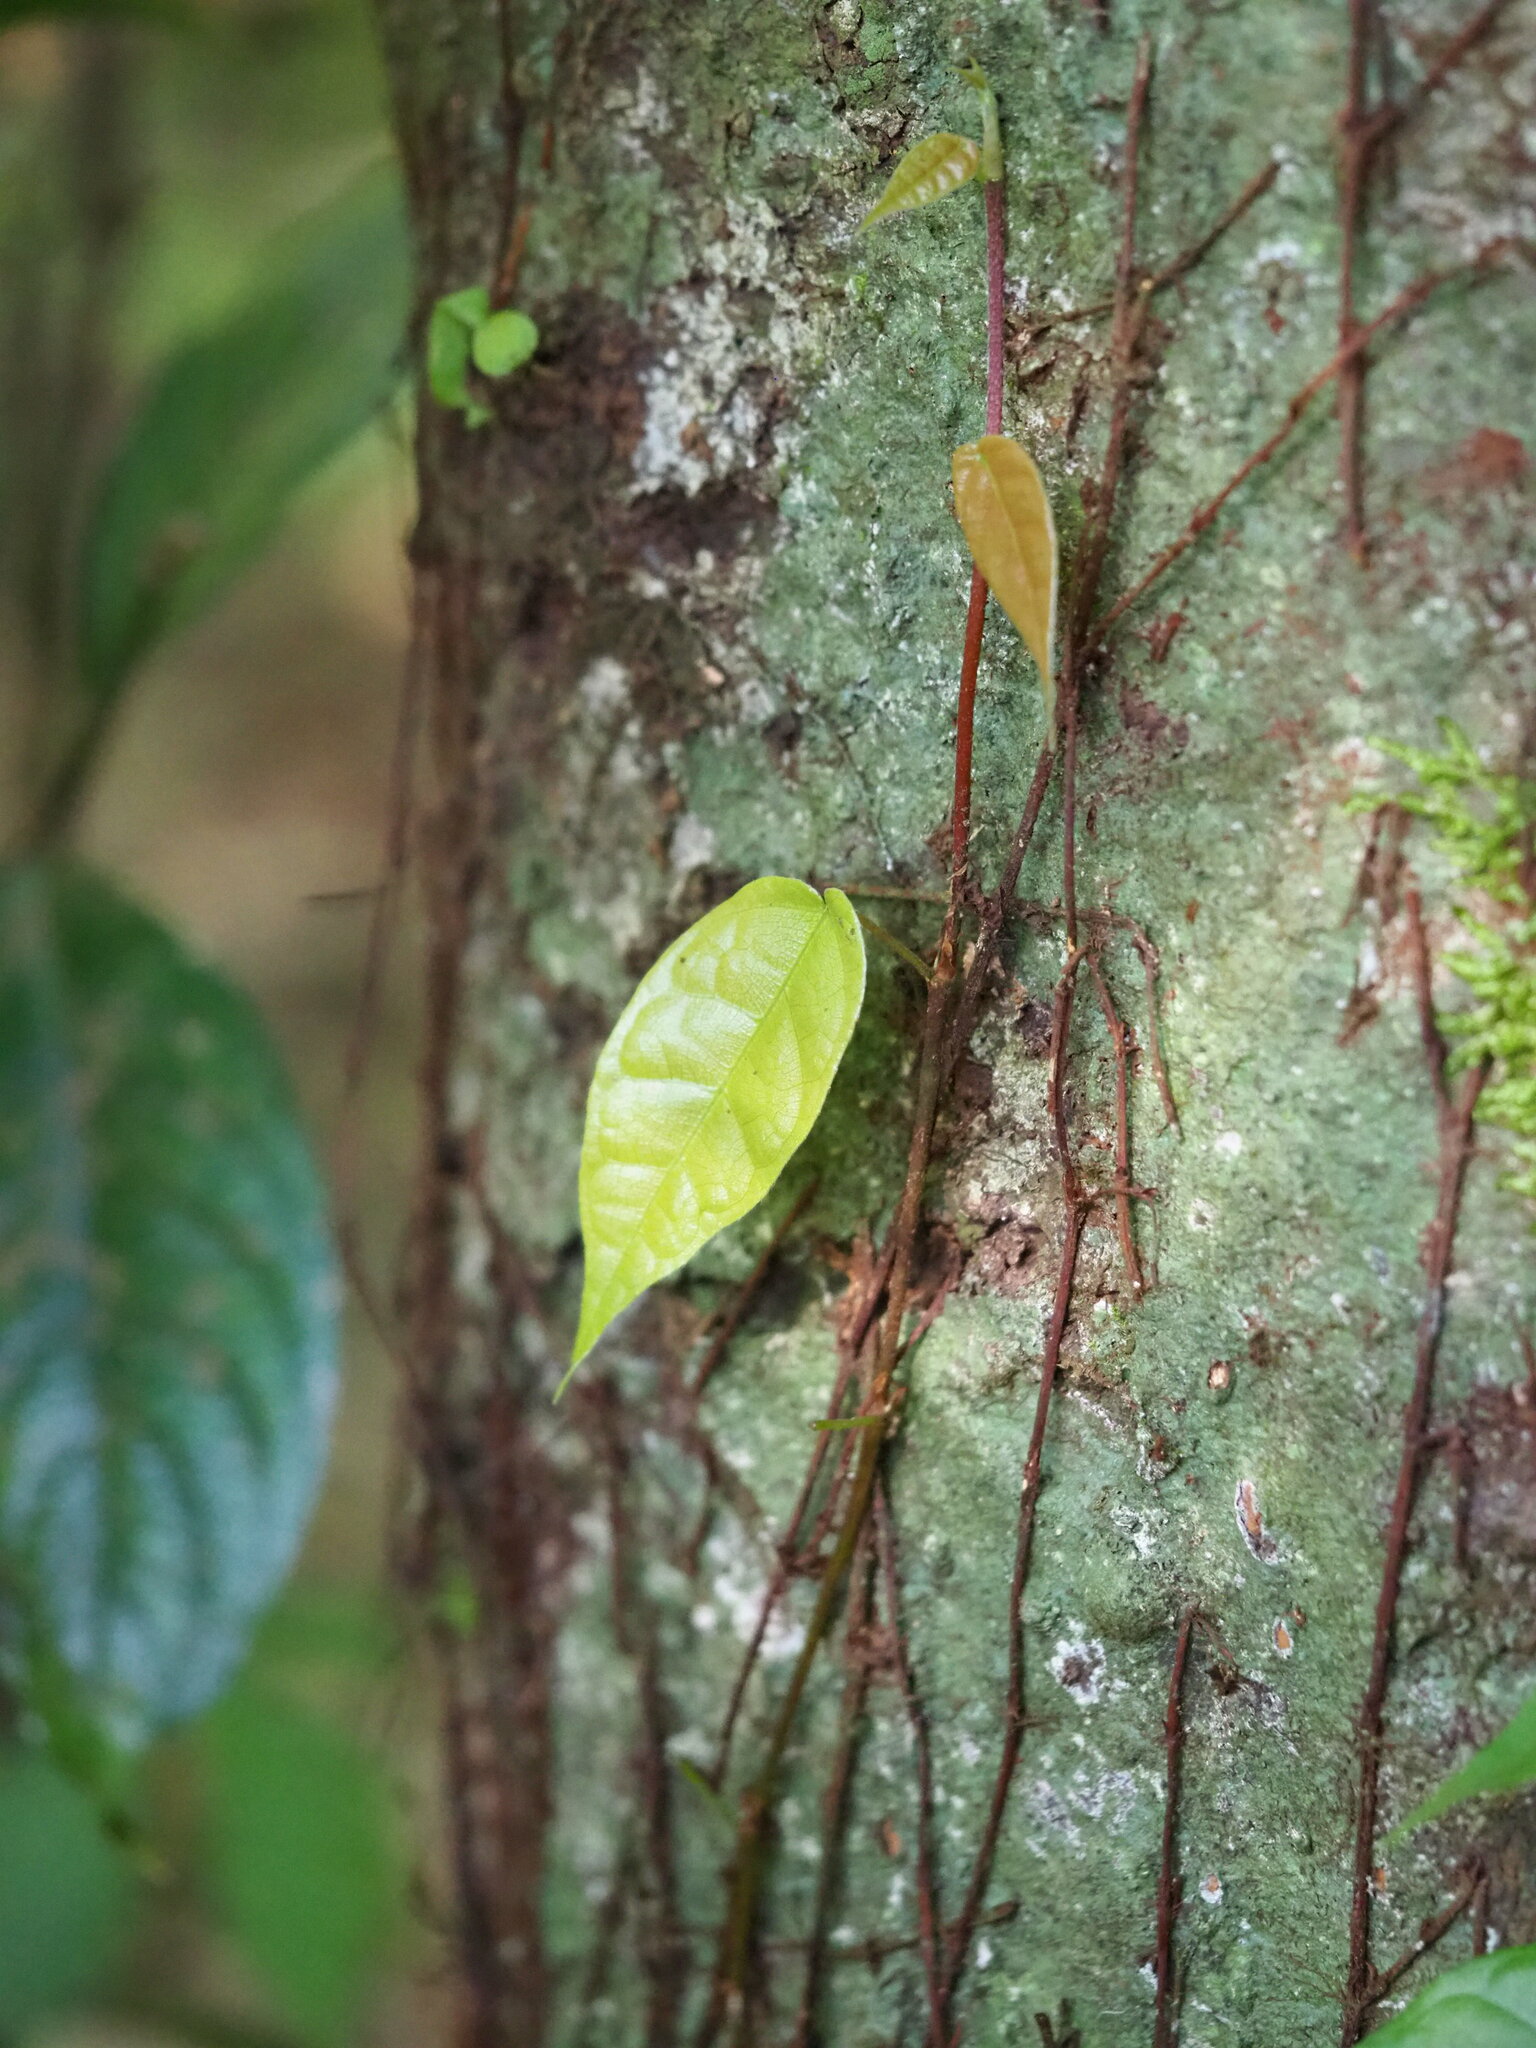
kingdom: Plantae
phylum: Tracheophyta
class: Magnoliopsida
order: Rosales
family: Moraceae
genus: Ficus
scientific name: Ficus sarmentosa
